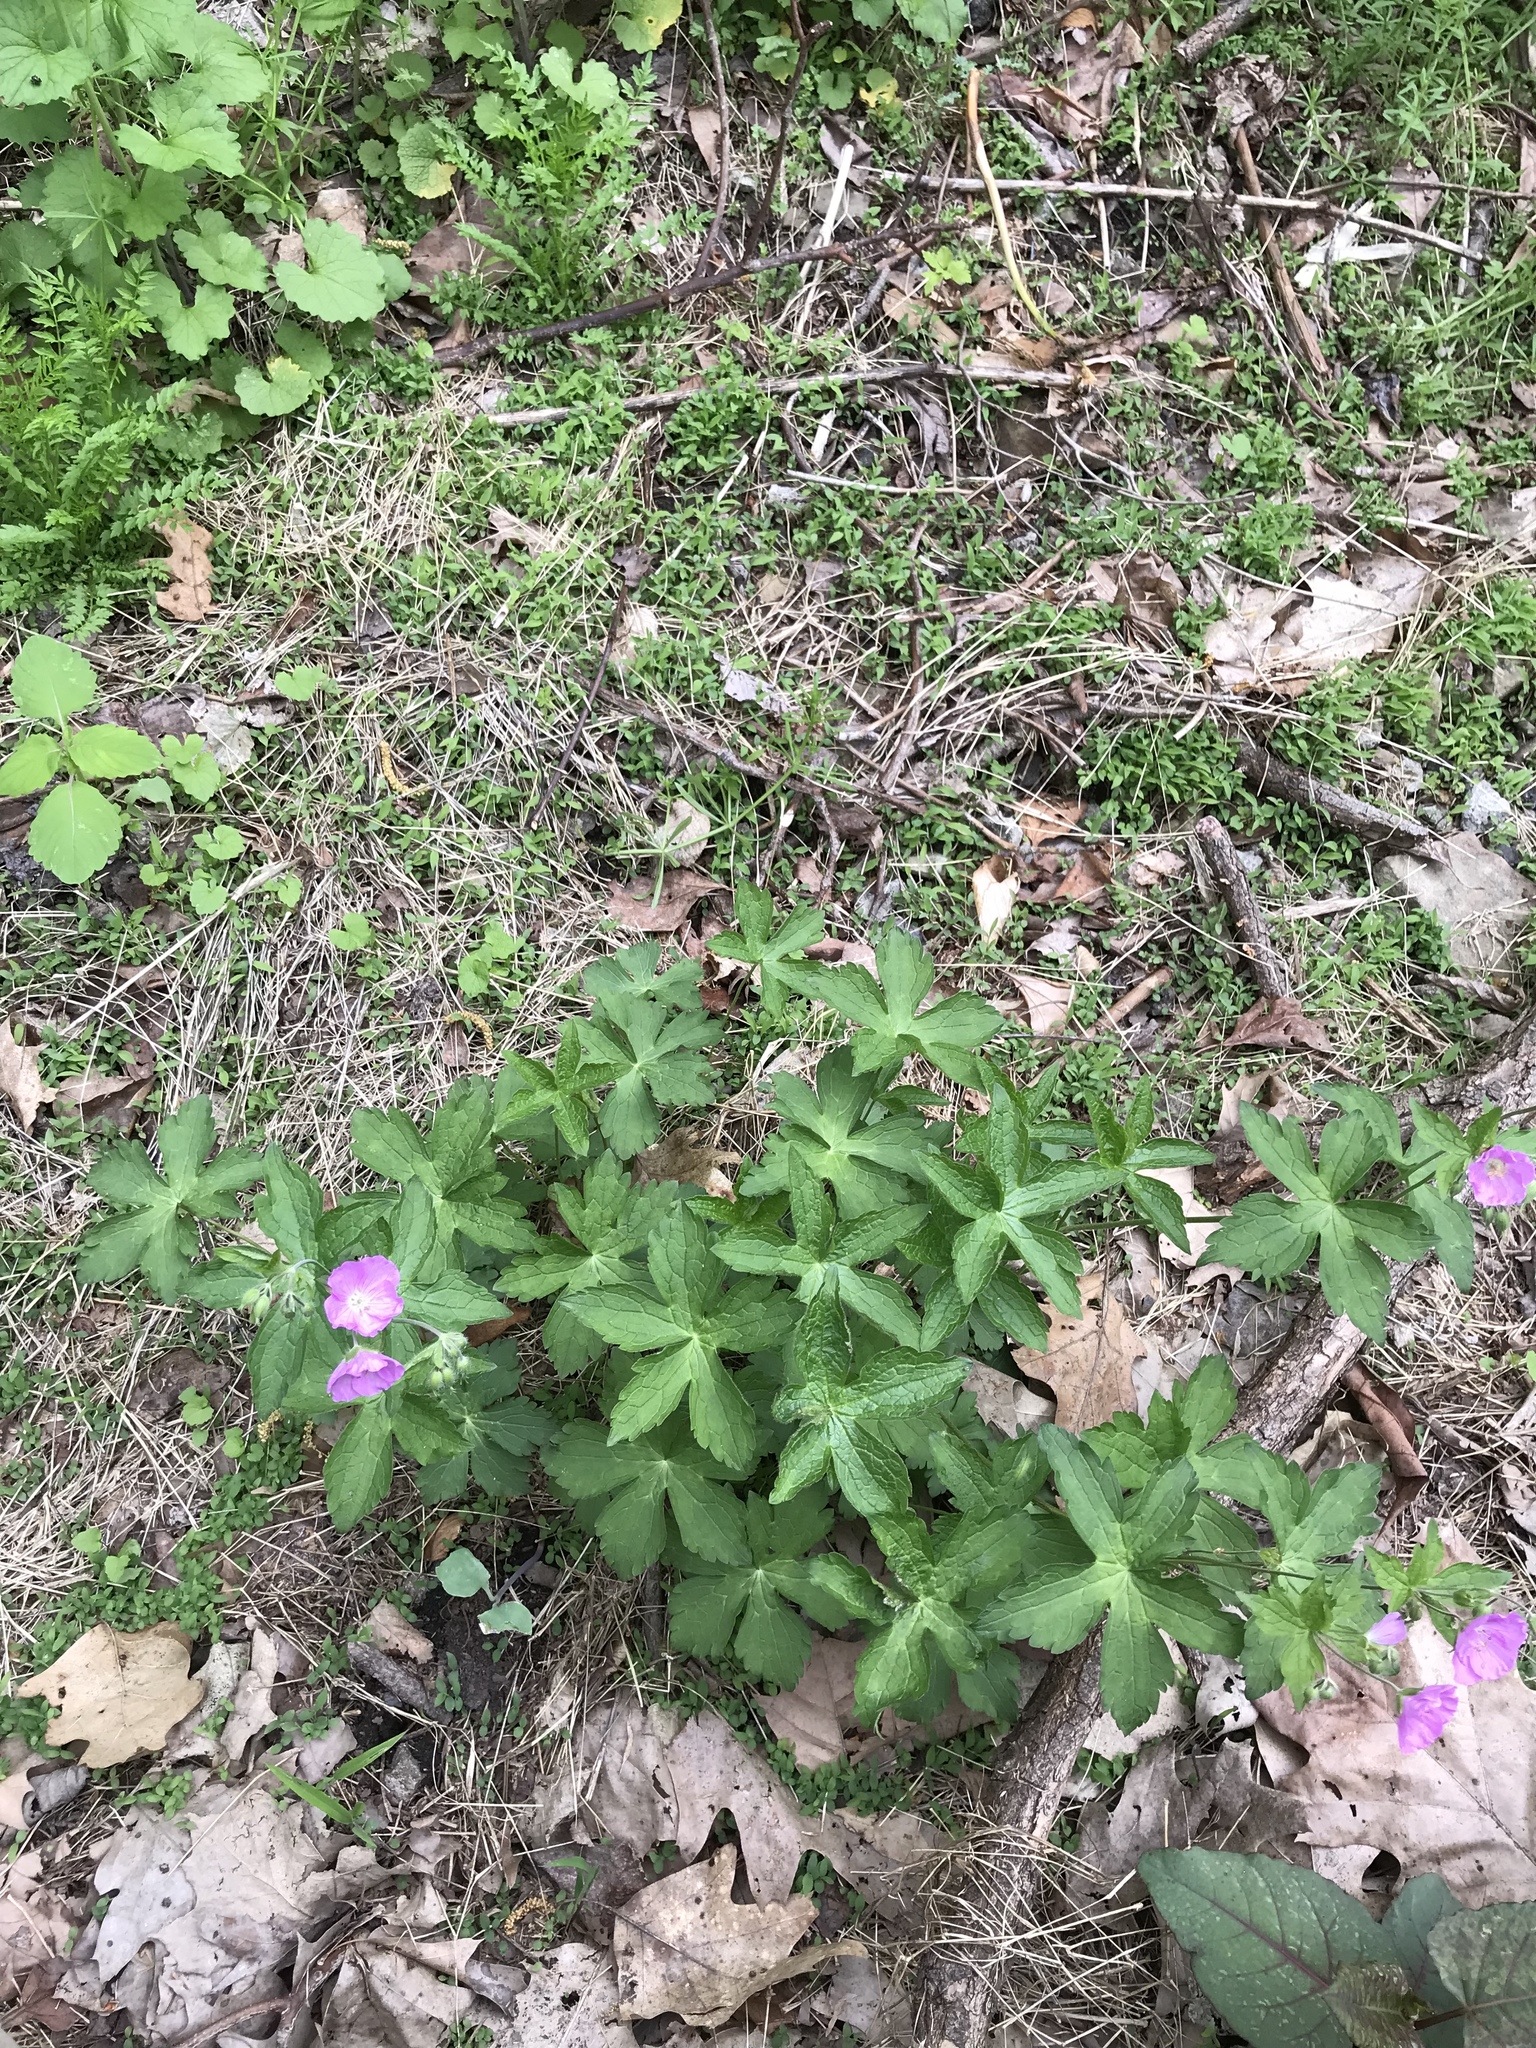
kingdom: Plantae
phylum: Tracheophyta
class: Magnoliopsida
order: Geraniales
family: Geraniaceae
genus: Geranium
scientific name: Geranium maculatum
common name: Spotted geranium
